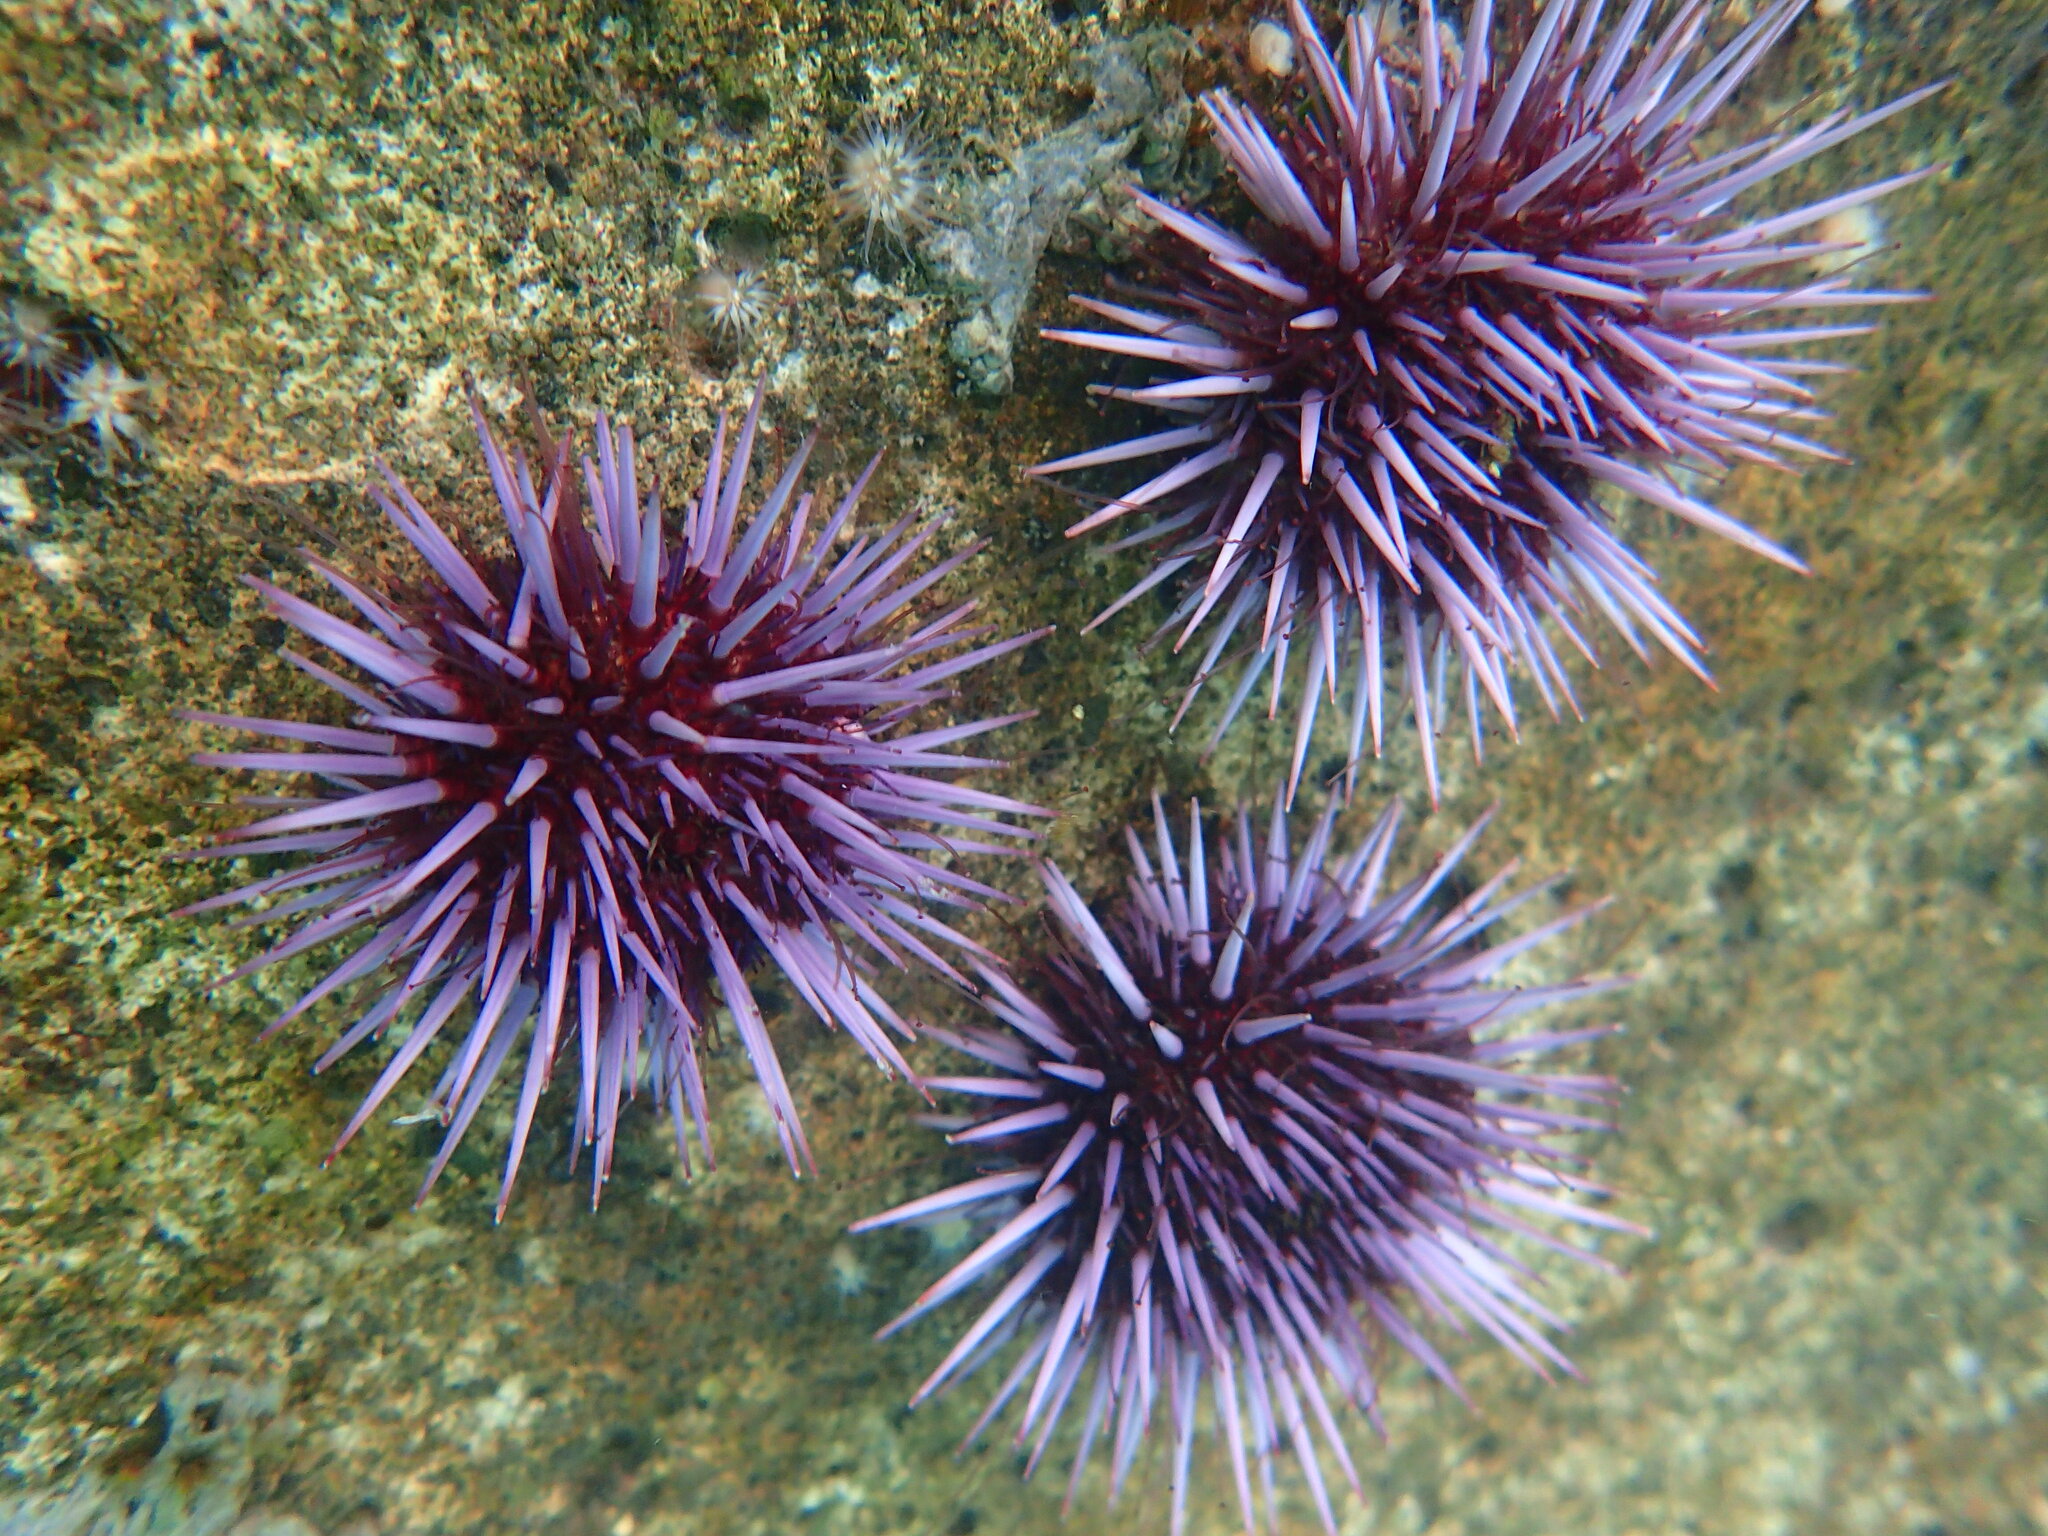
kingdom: Animalia
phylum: Echinodermata
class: Echinoidea
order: Camarodonta
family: Strongylocentrotidae
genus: Strongylocentrotus
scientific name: Strongylocentrotus purpuratus
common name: Purple sea urchin
